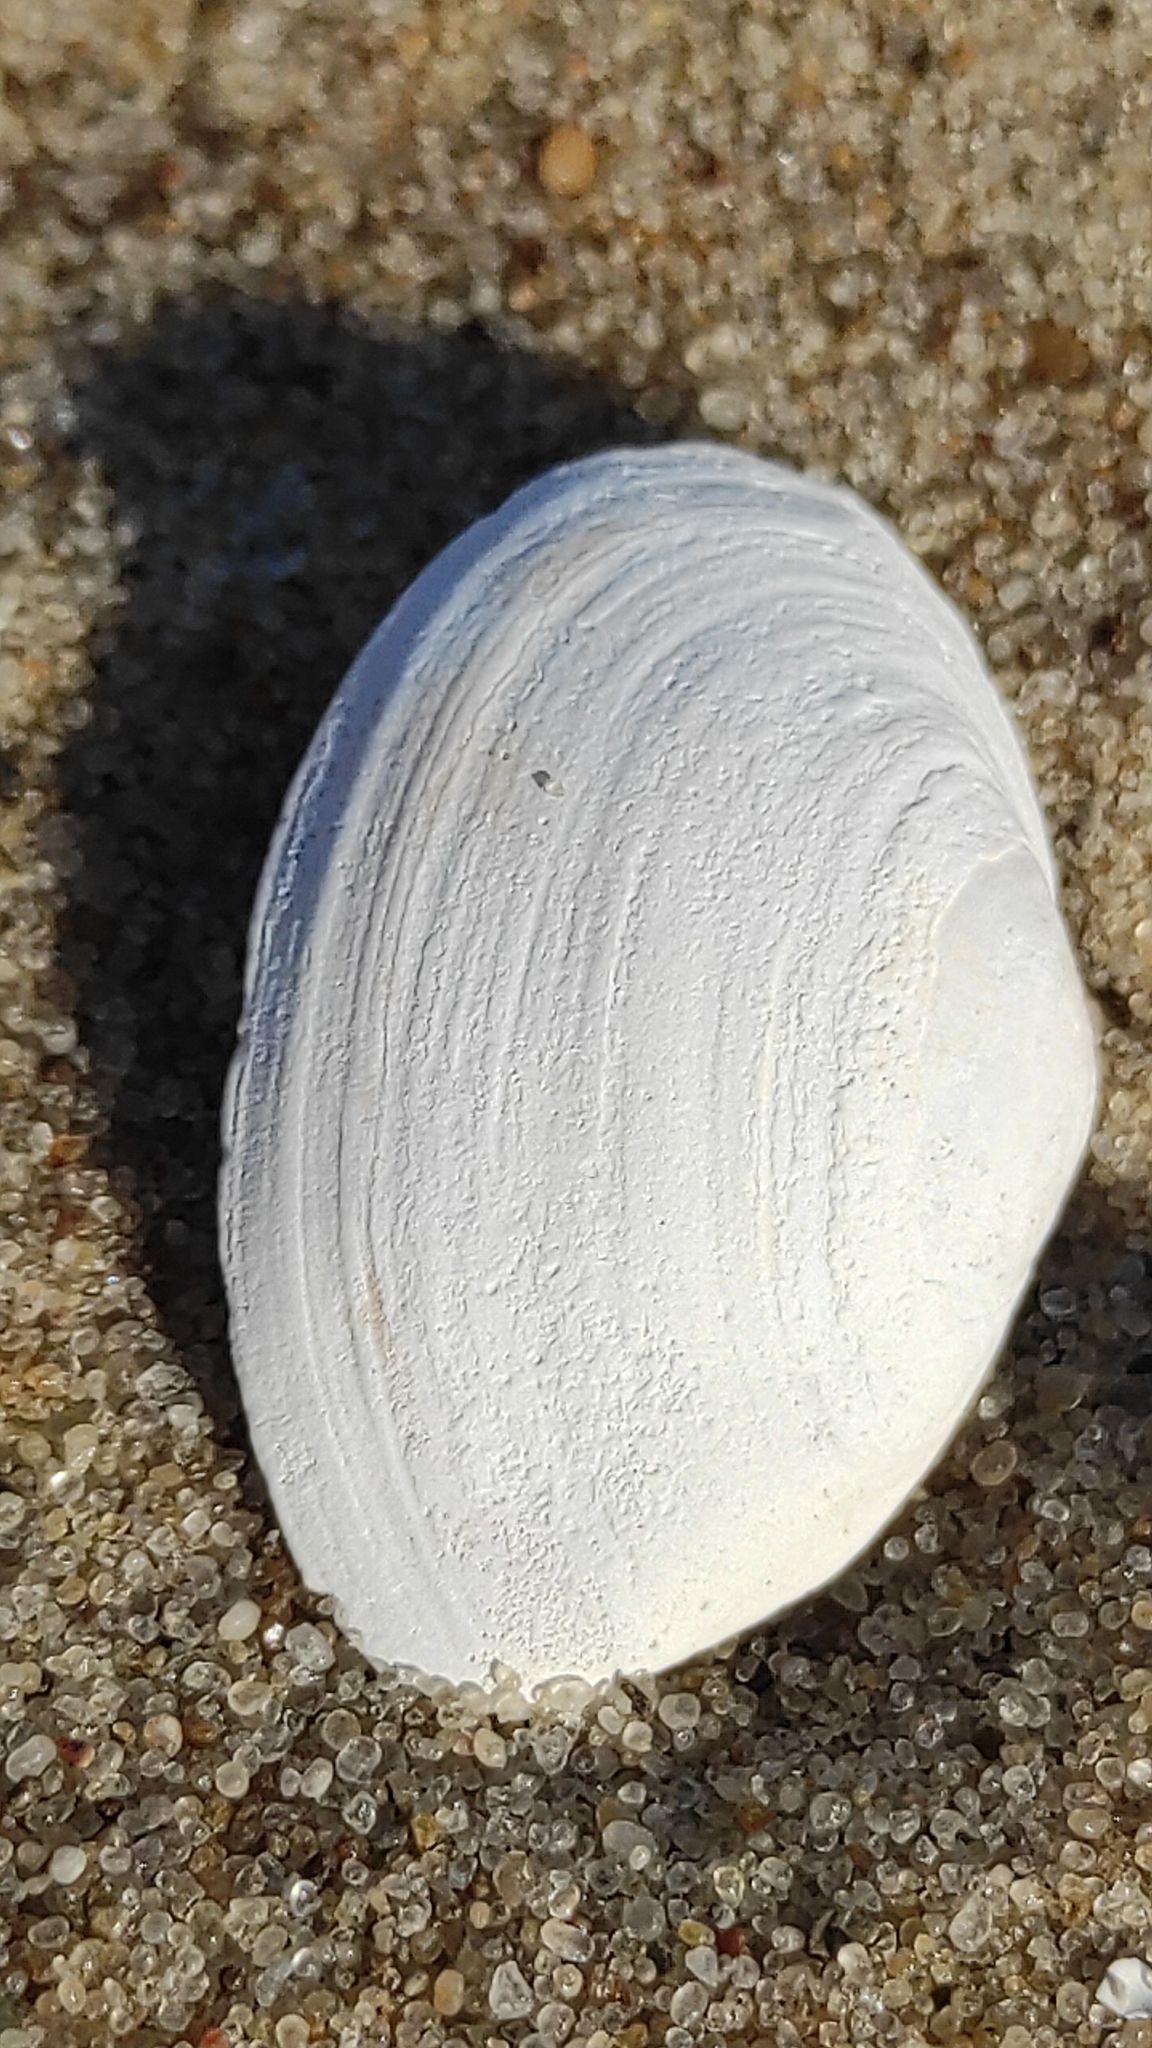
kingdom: Animalia
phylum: Mollusca
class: Bivalvia
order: Myida
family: Myidae
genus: Mya
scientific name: Mya arenaria
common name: Soft-shelled clam
